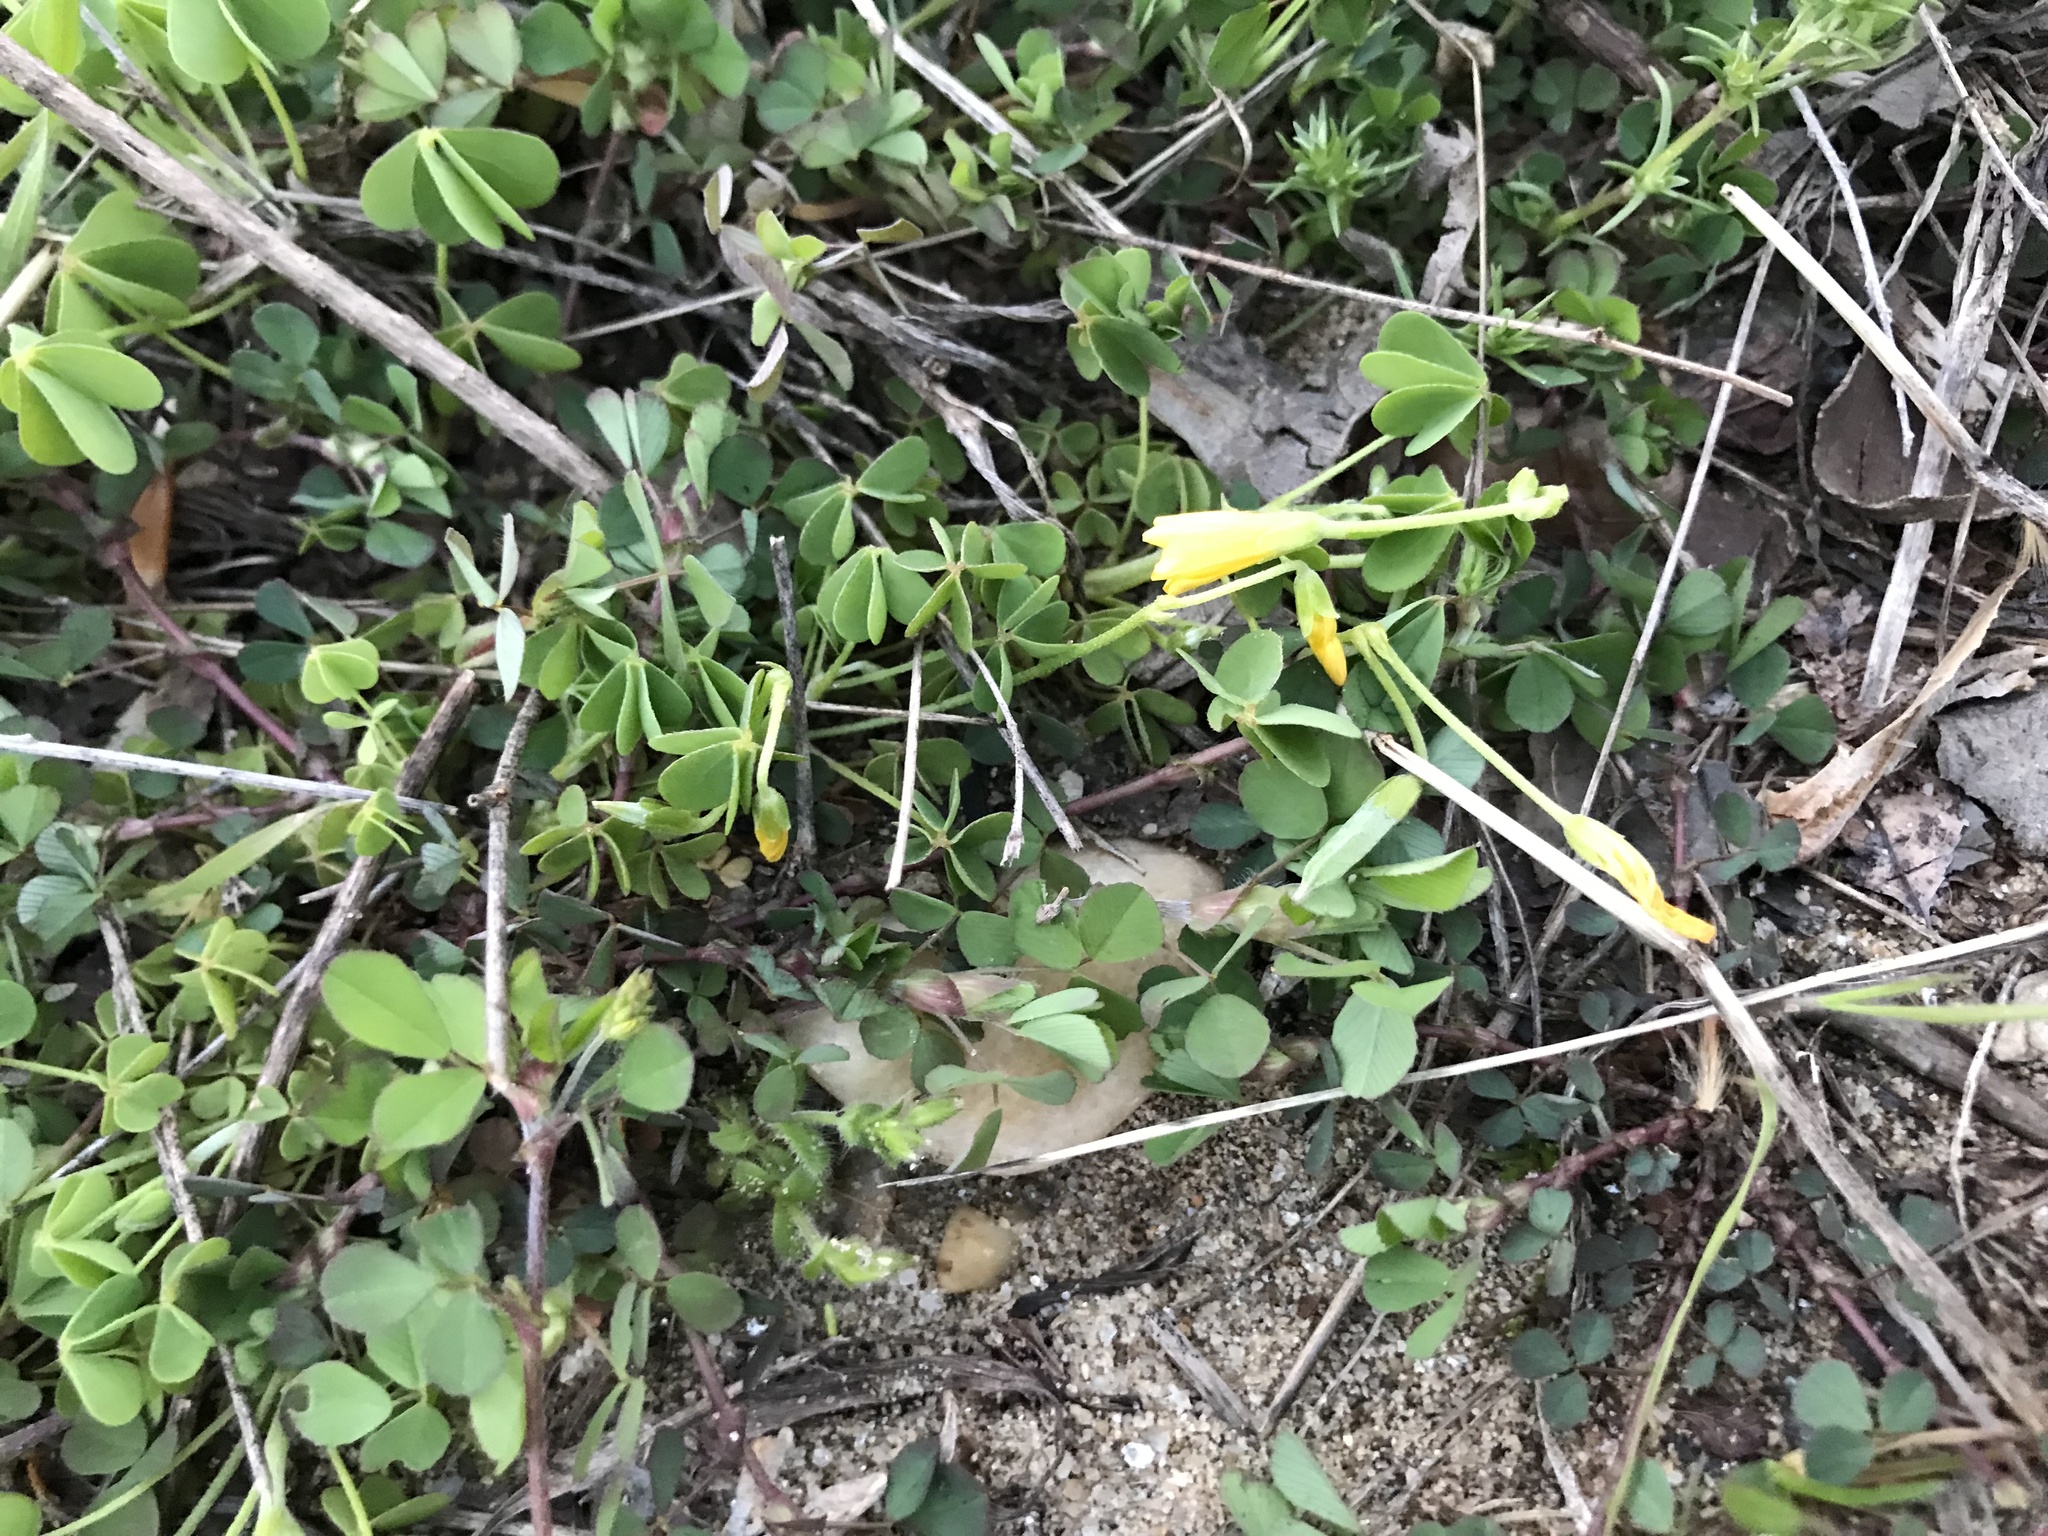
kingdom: Plantae
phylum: Tracheophyta
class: Magnoliopsida
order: Oxalidales
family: Oxalidaceae
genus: Oxalis
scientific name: Oxalis
